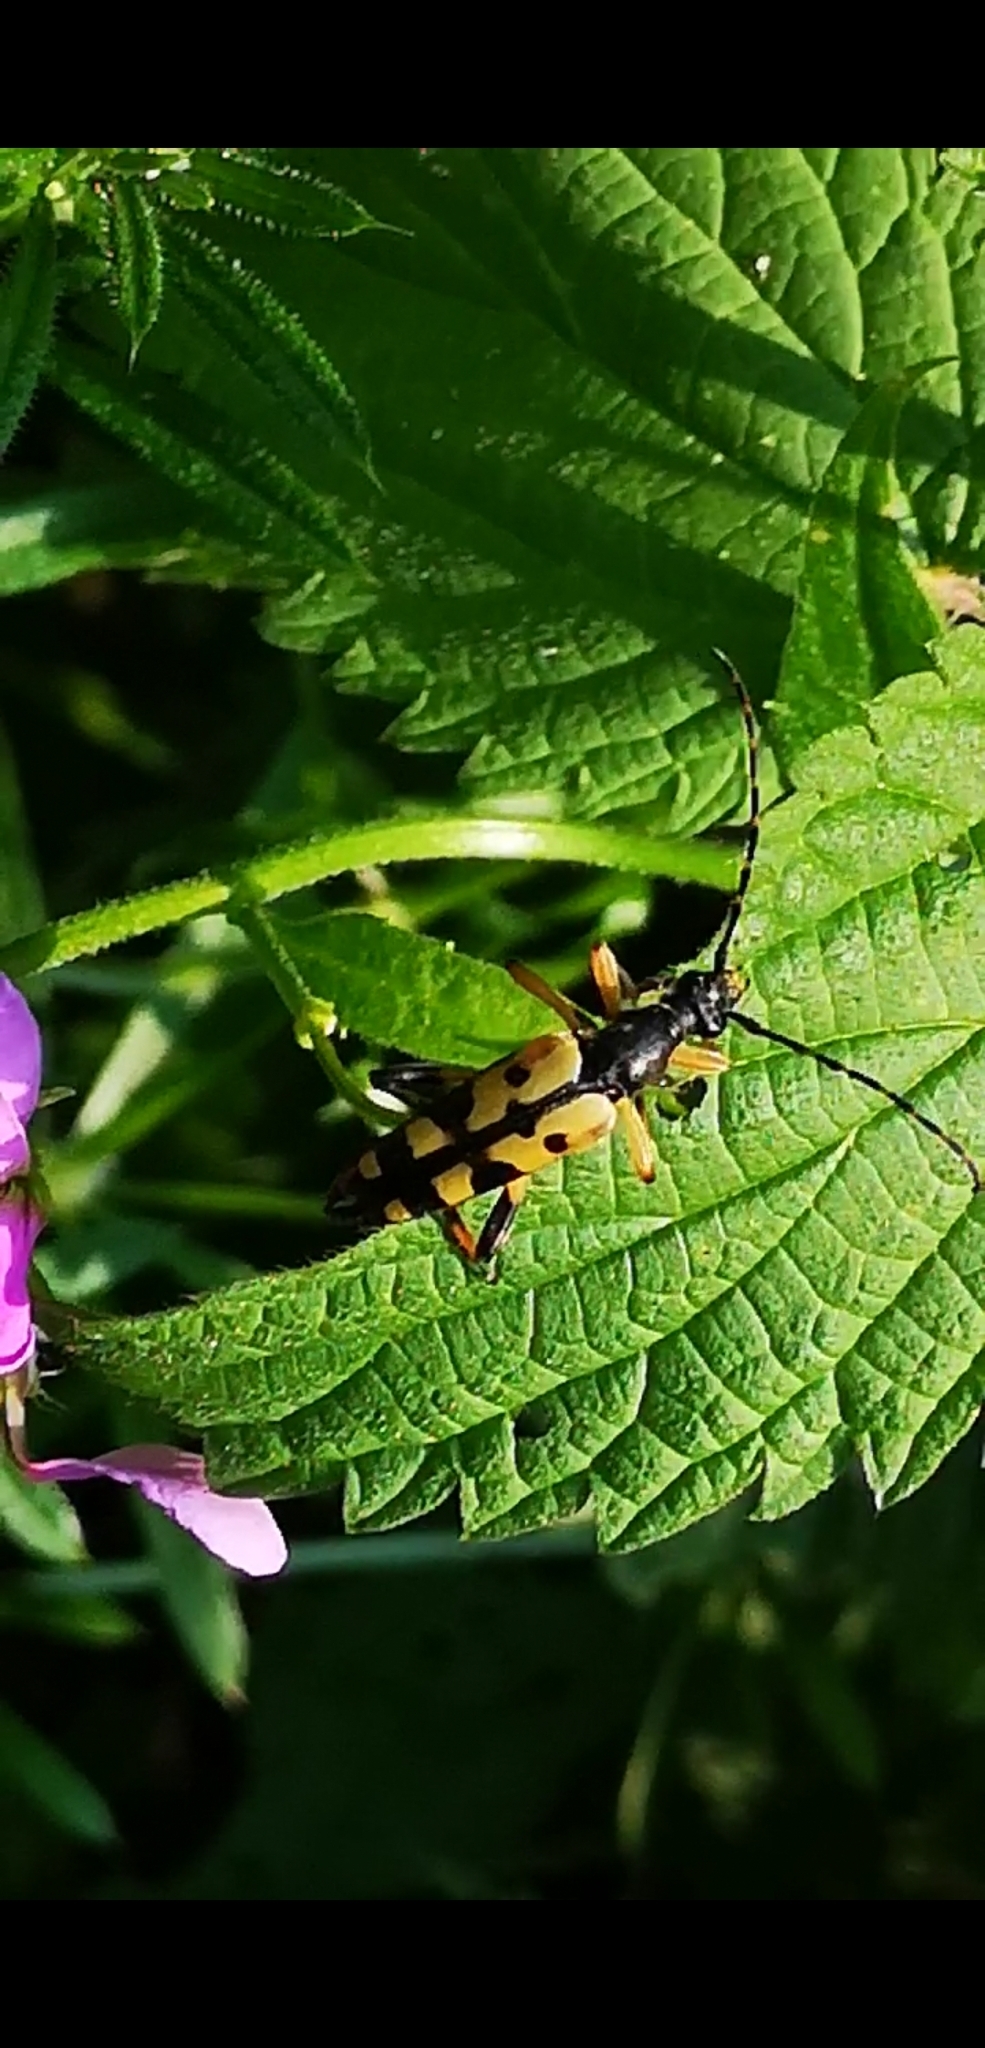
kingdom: Animalia
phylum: Arthropoda
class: Insecta
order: Coleoptera
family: Cerambycidae
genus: Rutpela
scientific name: Rutpela maculata
